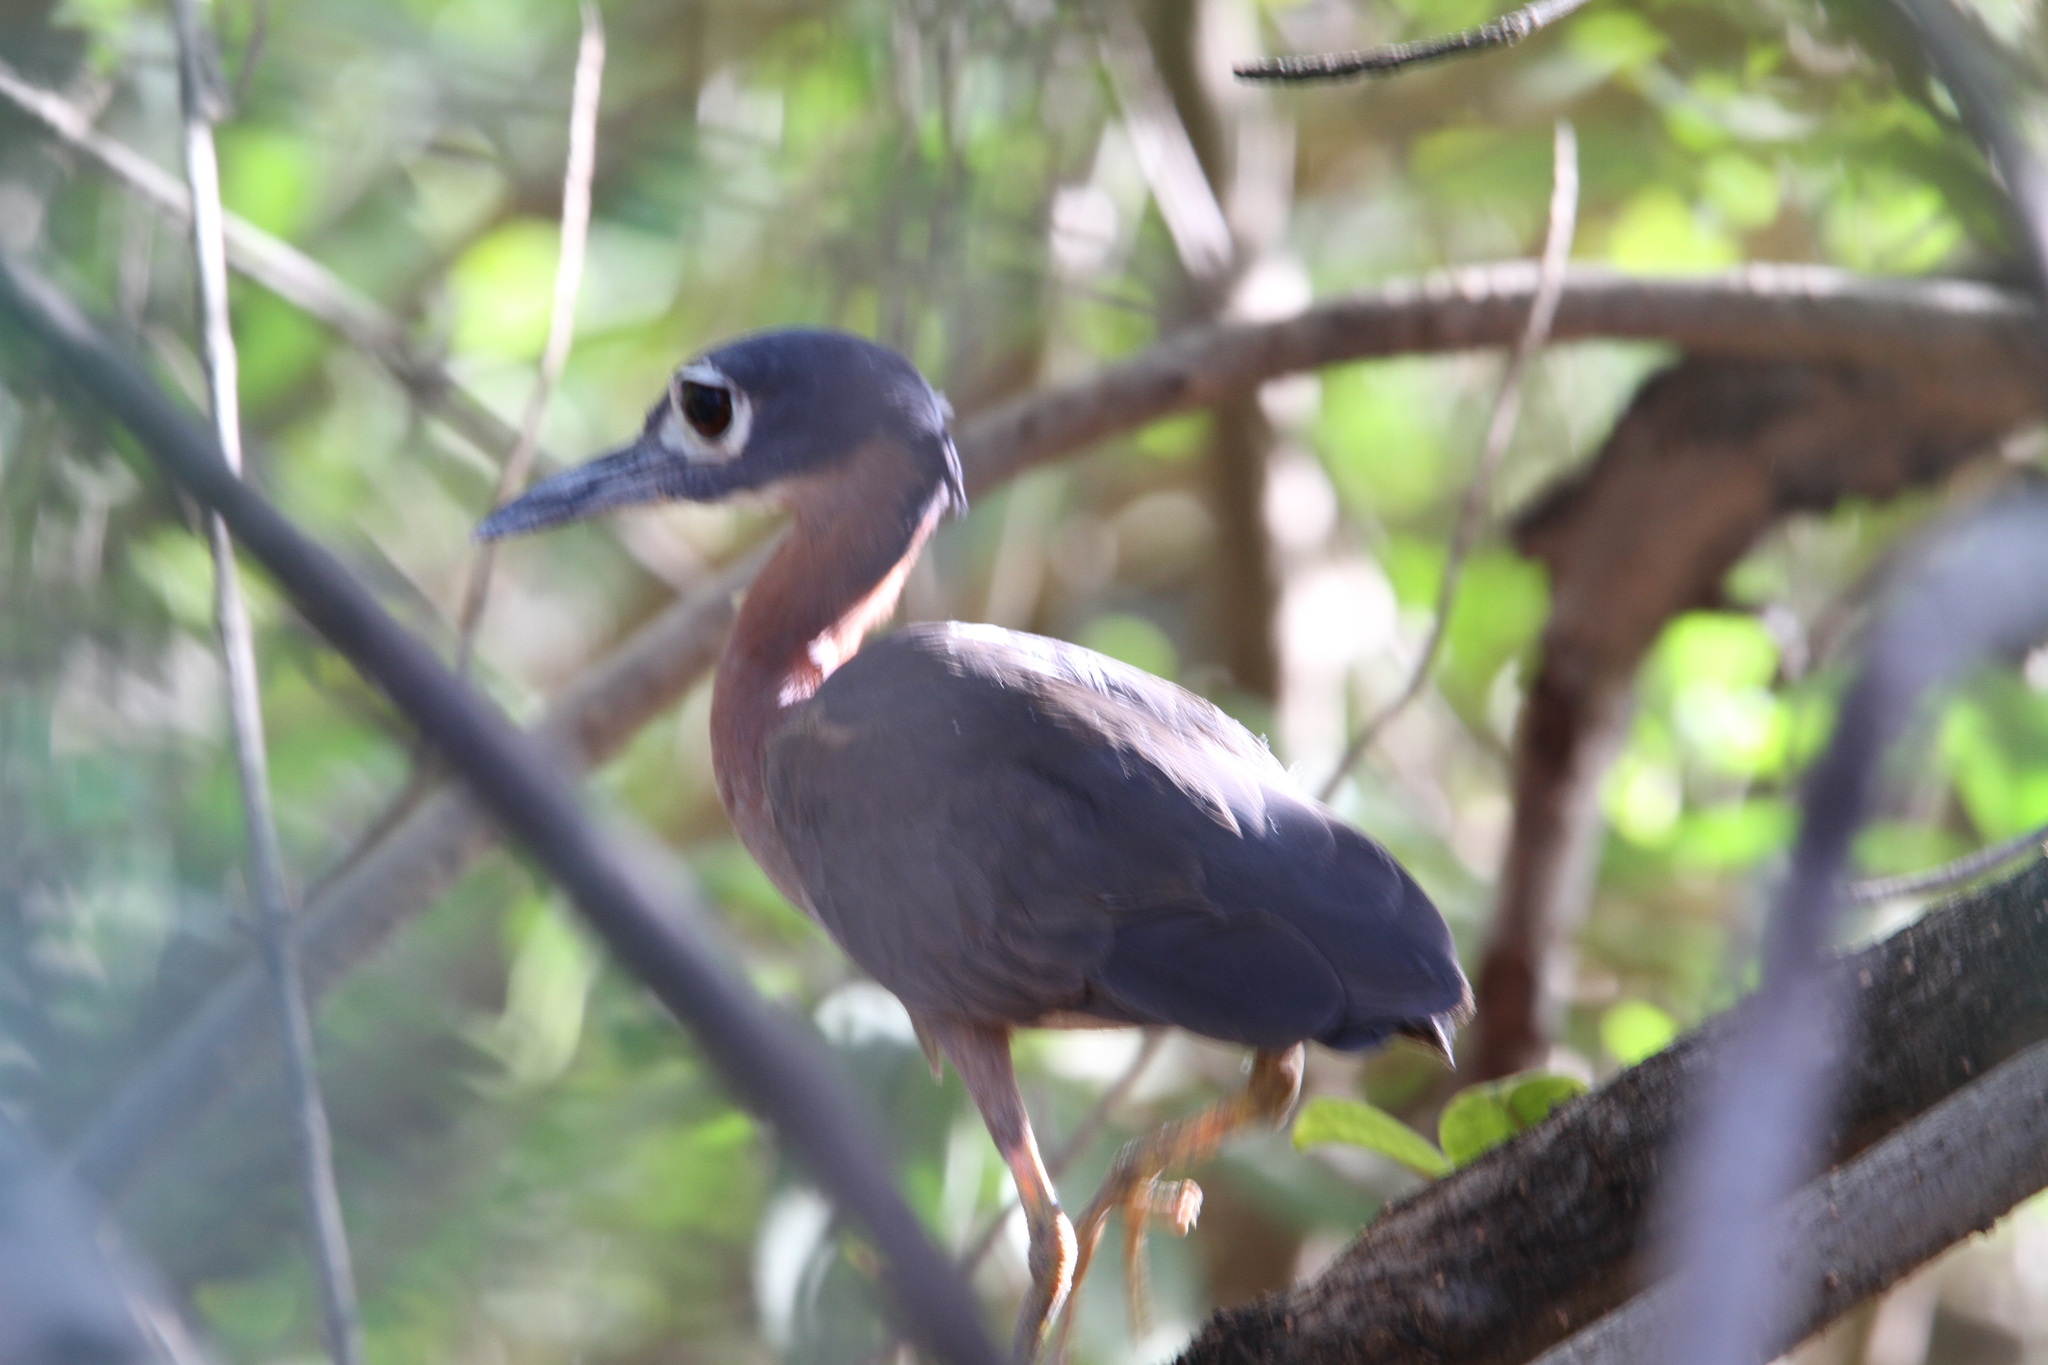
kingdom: Animalia
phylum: Chordata
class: Aves
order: Pelecaniformes
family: Ardeidae
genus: Gorsachius
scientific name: Gorsachius leuconotus
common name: White-backed night heron
